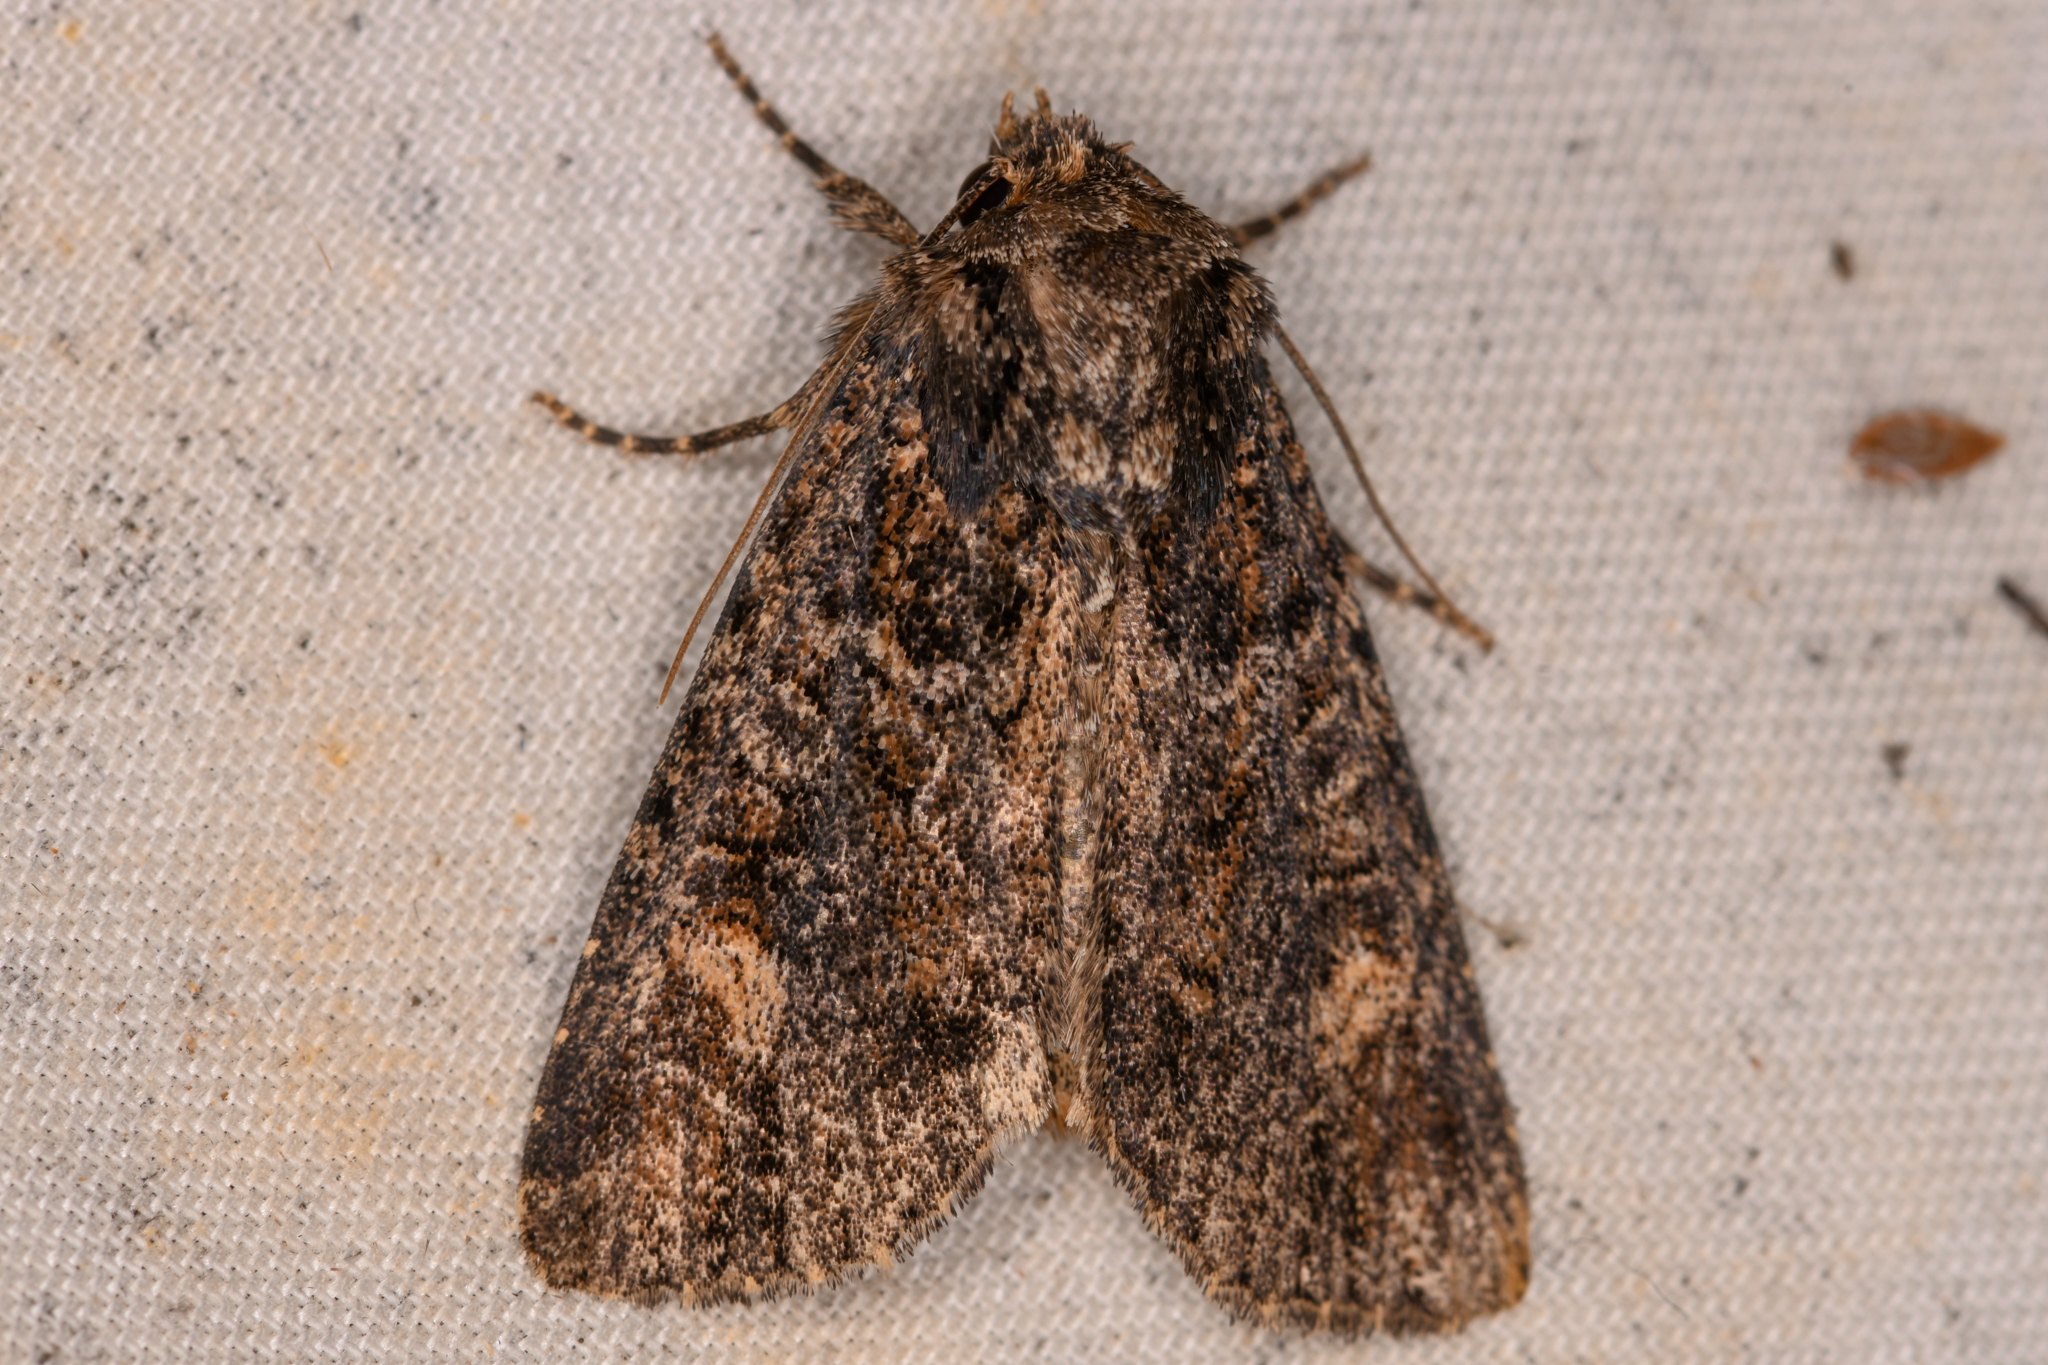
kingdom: Animalia
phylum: Arthropoda
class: Insecta
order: Lepidoptera
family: Noctuidae
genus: Aseptis
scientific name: Aseptis binotata
